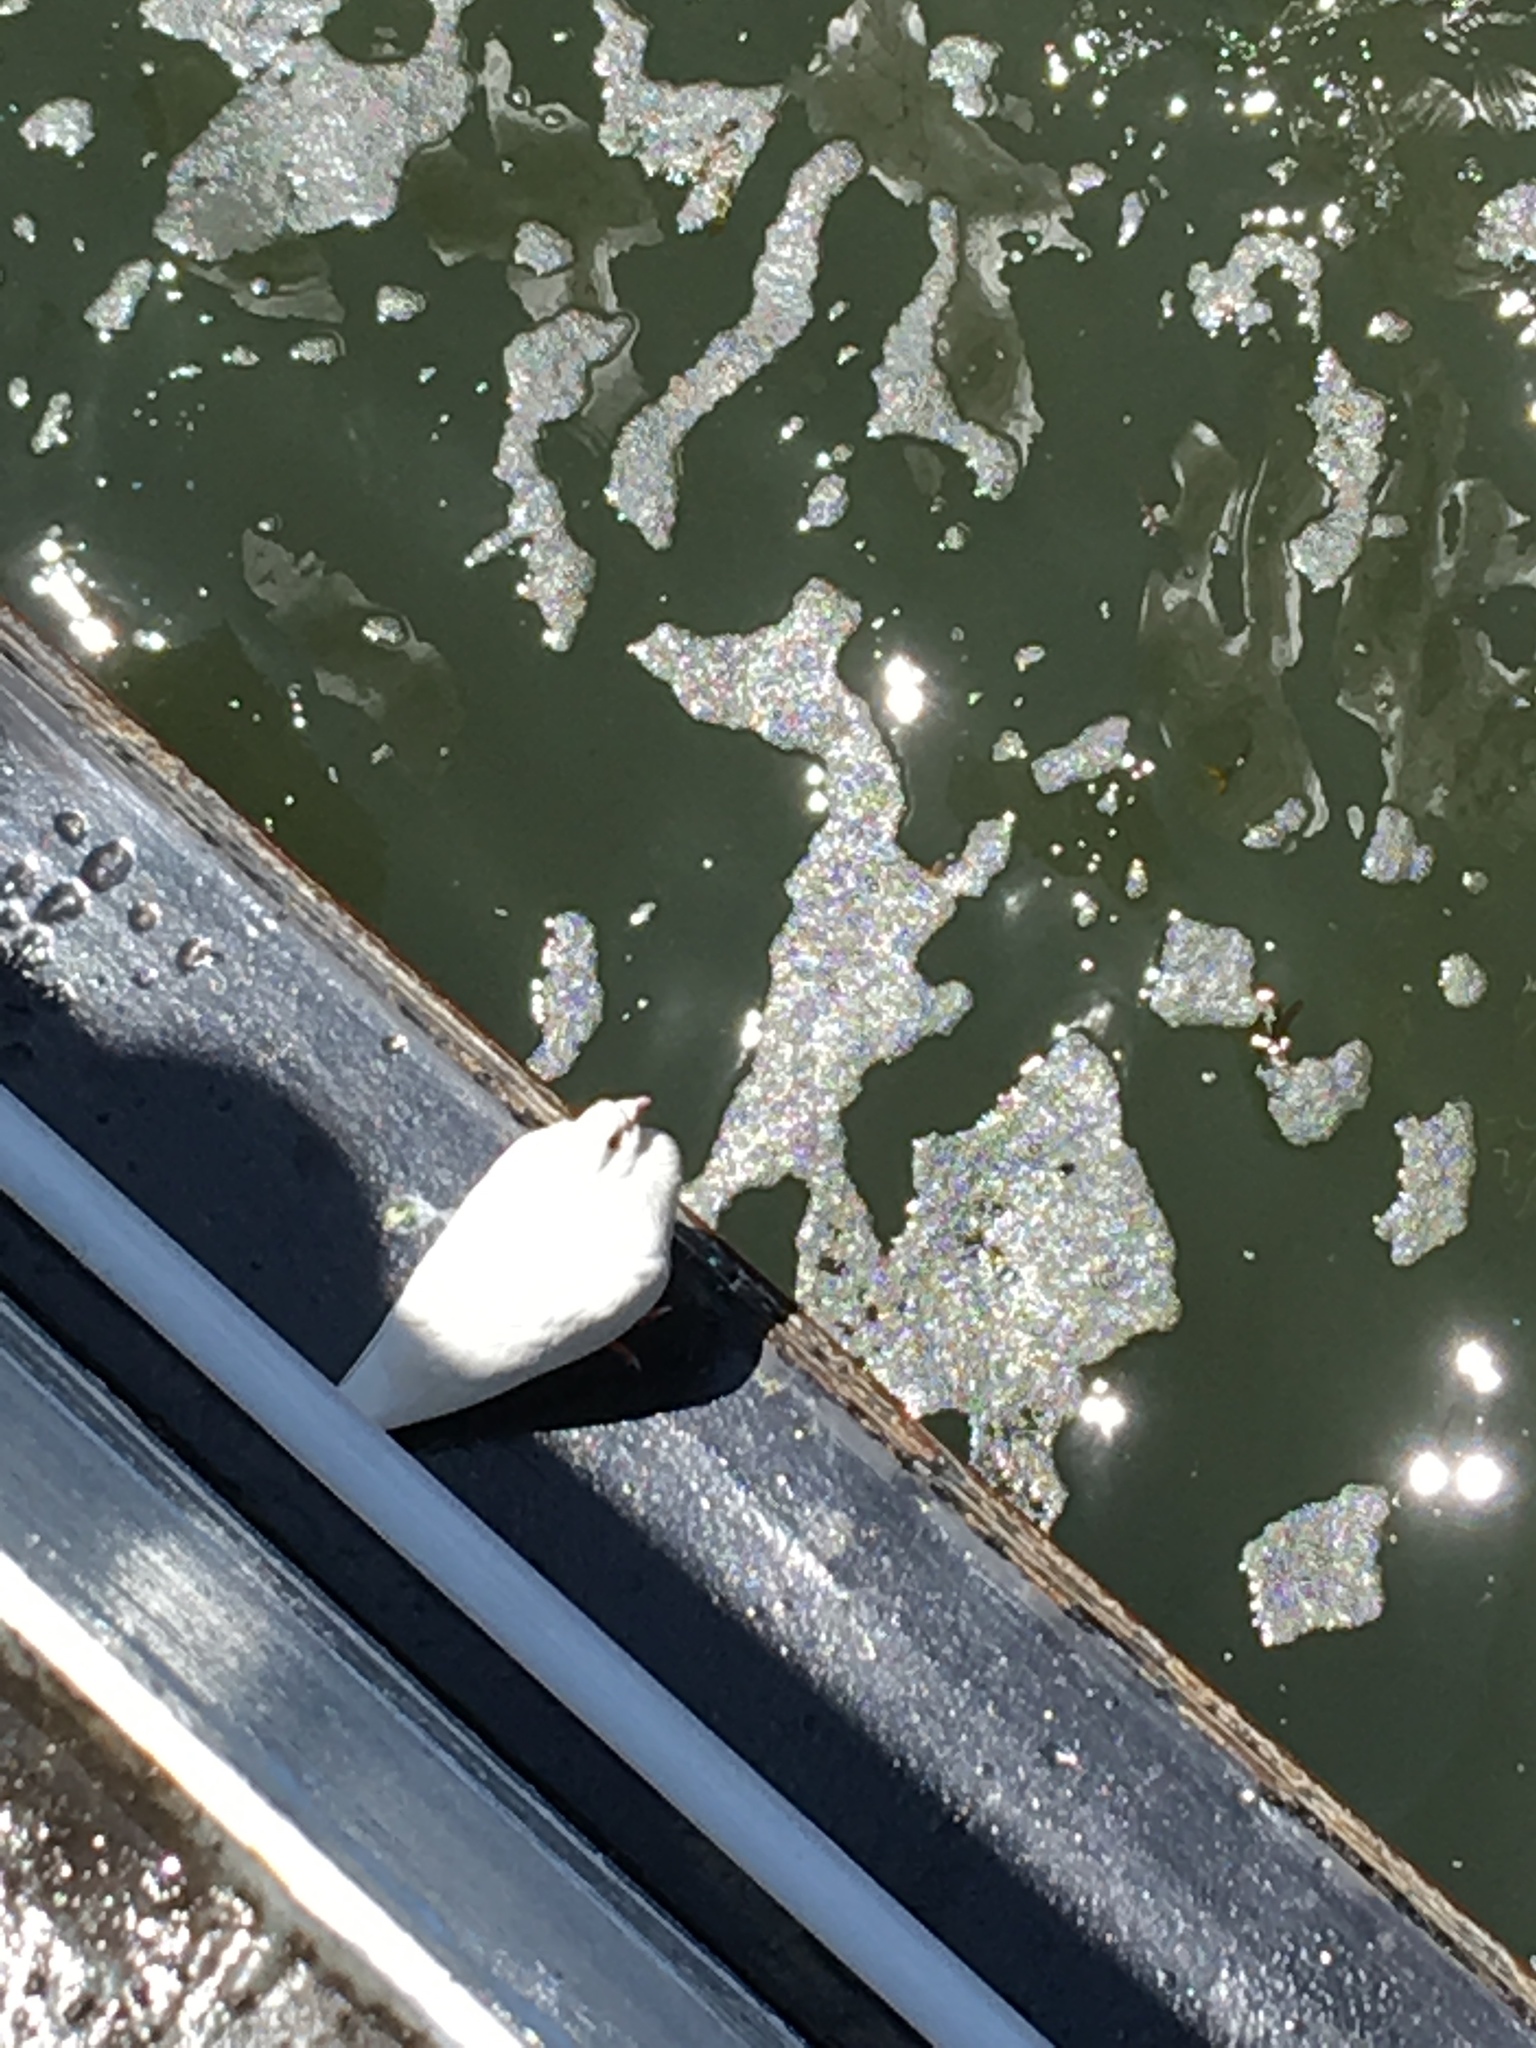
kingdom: Animalia
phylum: Chordata
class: Aves
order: Columbiformes
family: Columbidae
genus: Columba
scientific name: Columba livia
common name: Rock pigeon
